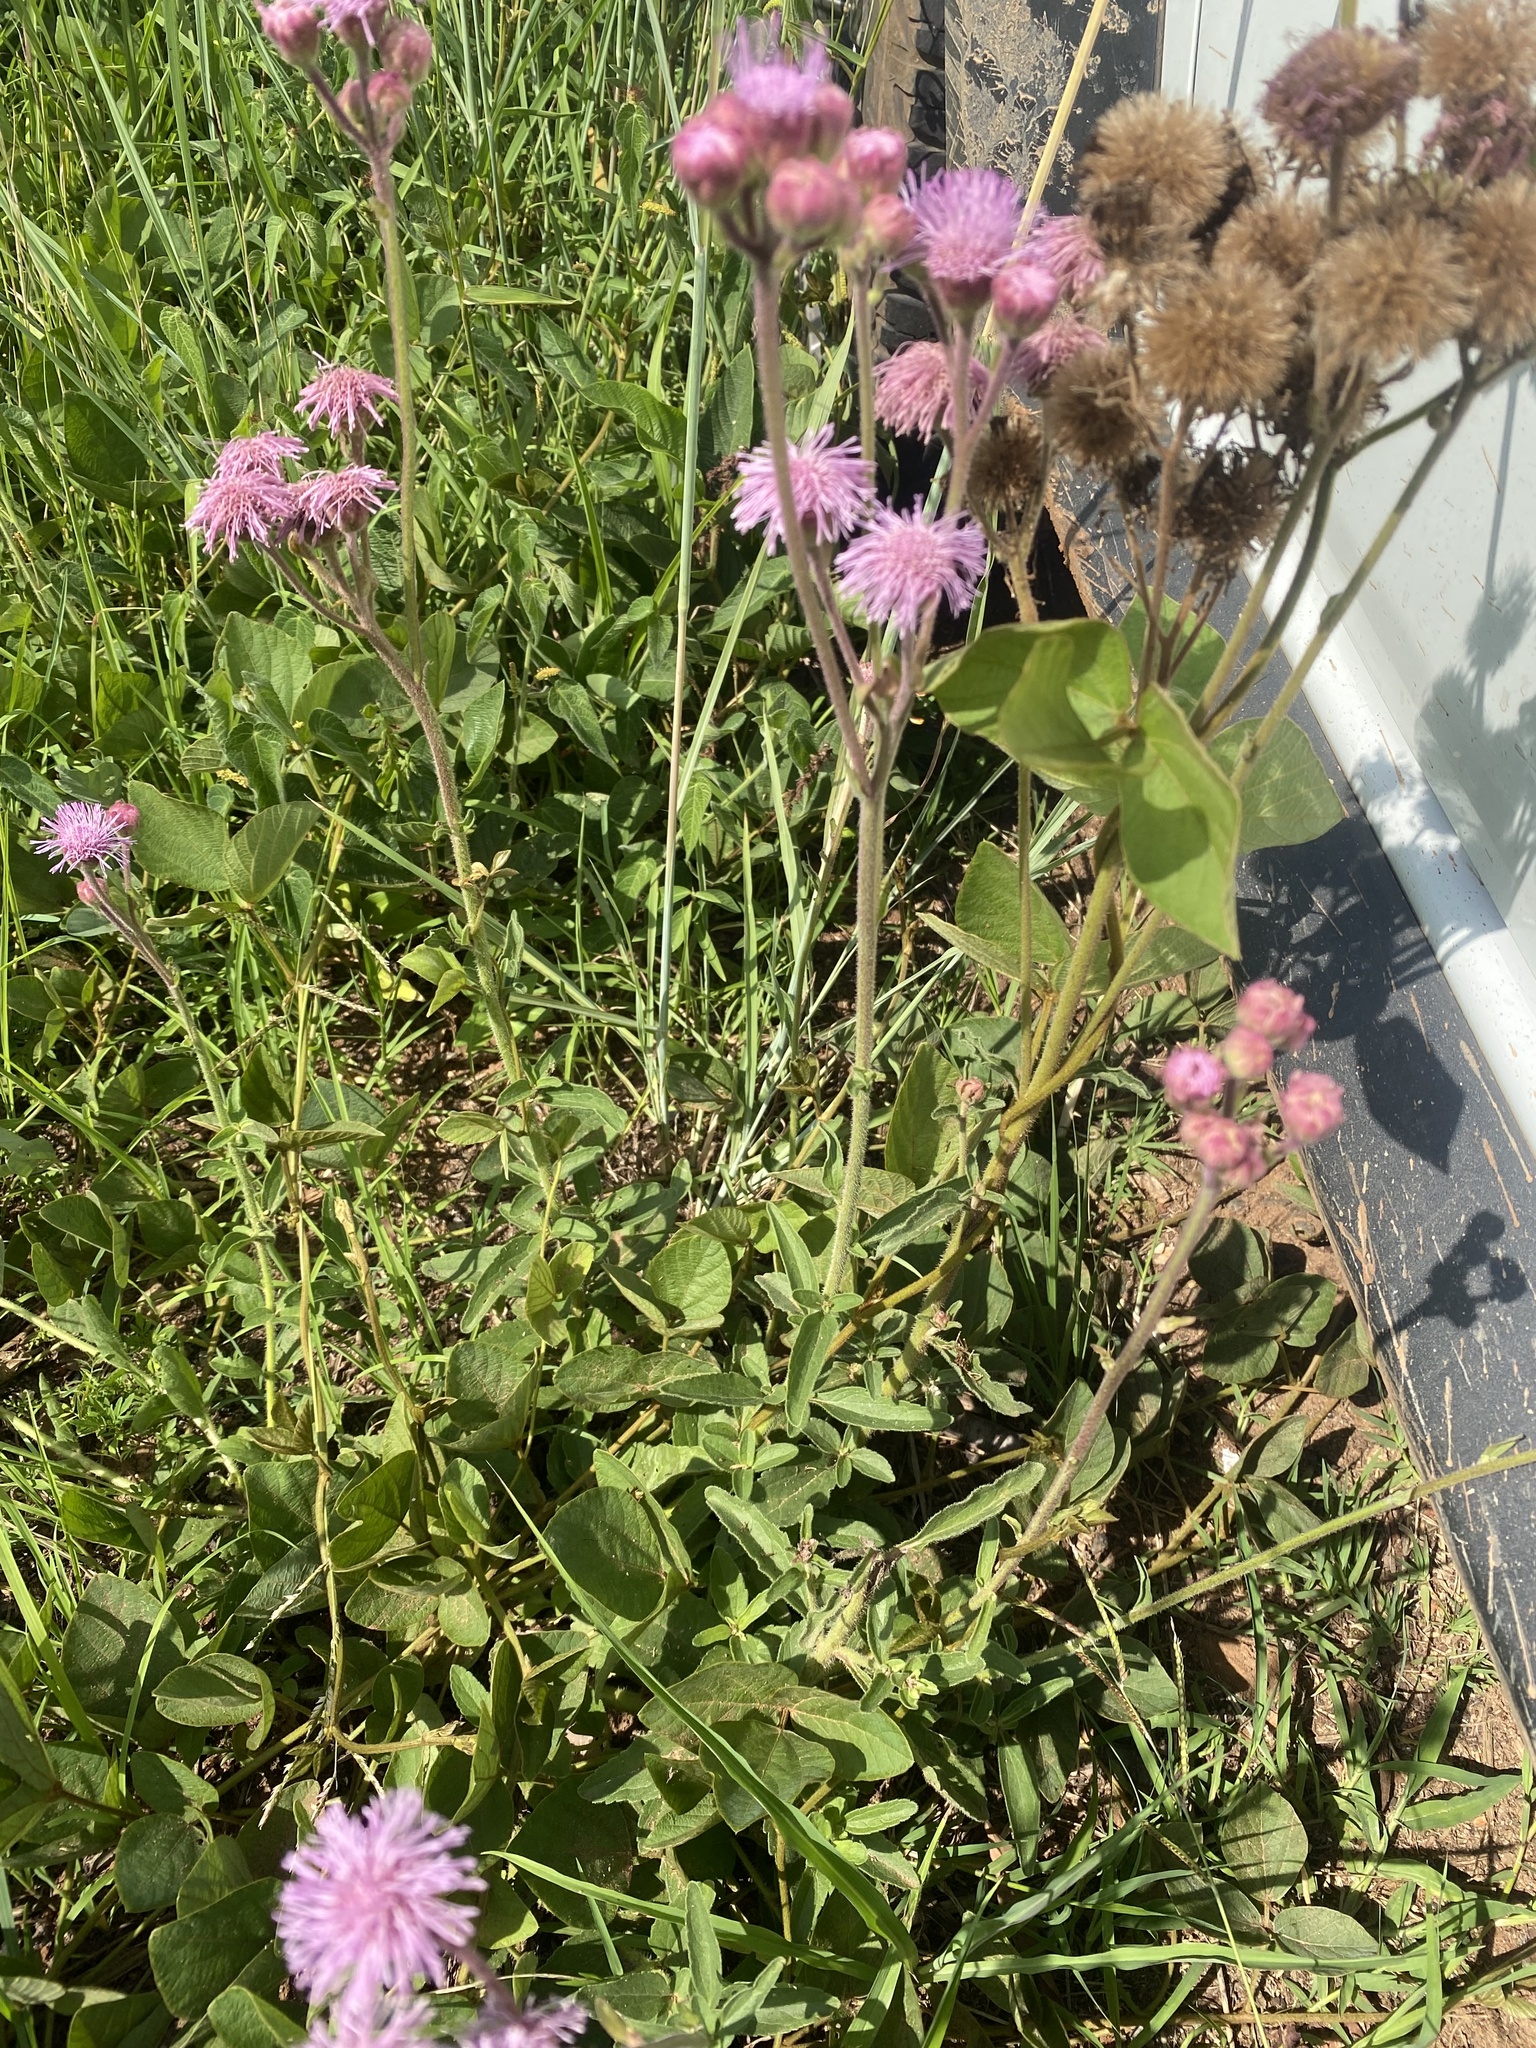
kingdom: Plantae
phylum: Tracheophyta
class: Magnoliopsida
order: Asterales
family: Asteraceae
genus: Campuloclinium
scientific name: Campuloclinium macrocephalum
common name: Pompomweed
